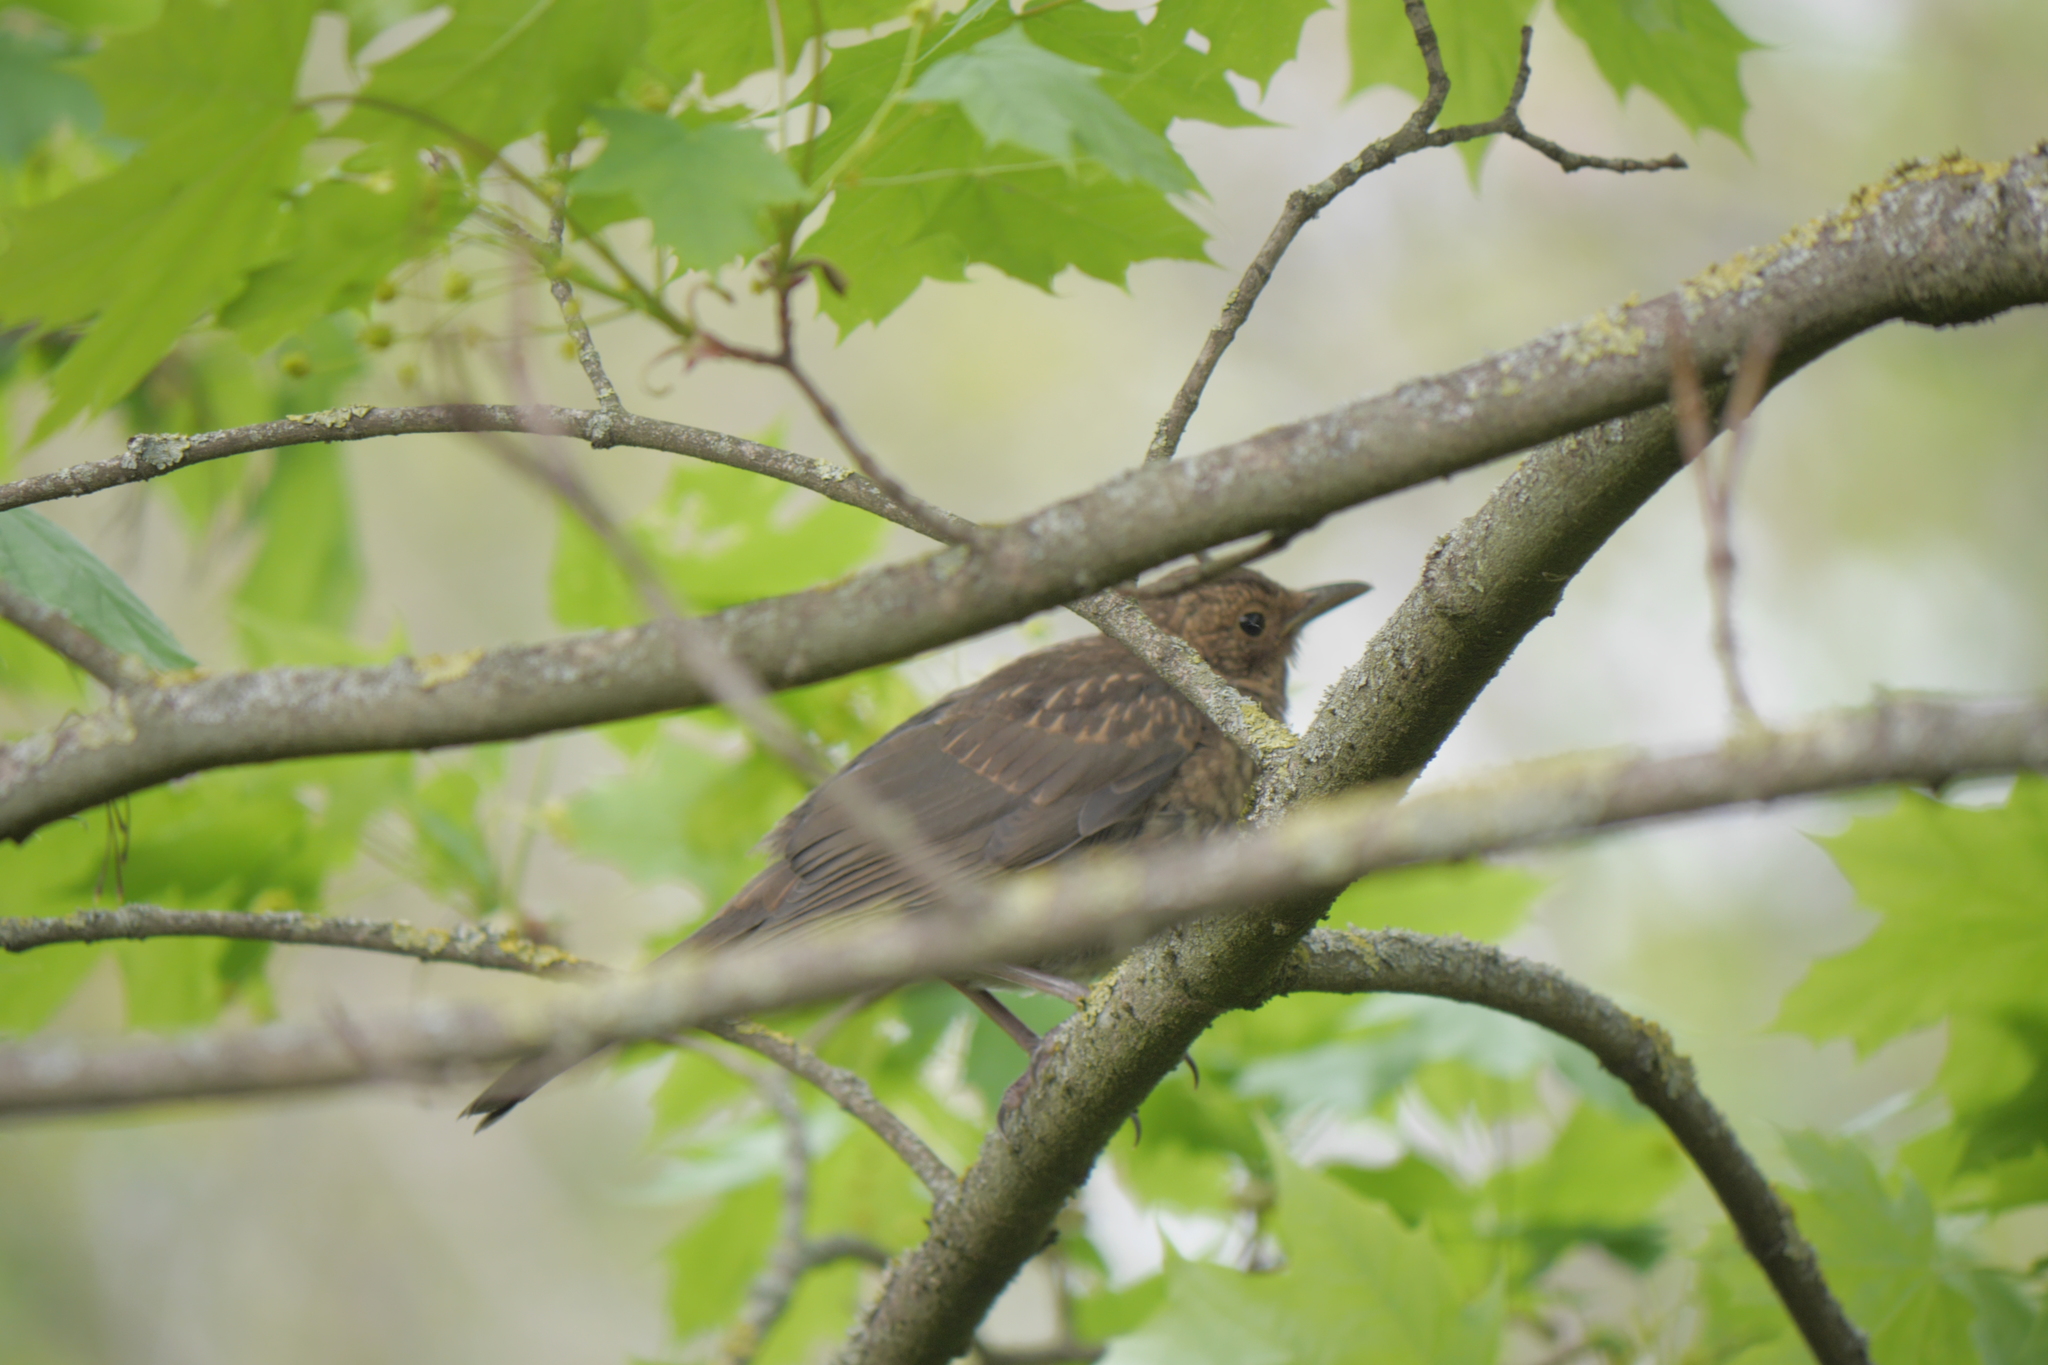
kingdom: Animalia
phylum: Chordata
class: Aves
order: Passeriformes
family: Turdidae
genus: Turdus
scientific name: Turdus merula
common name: Common blackbird
